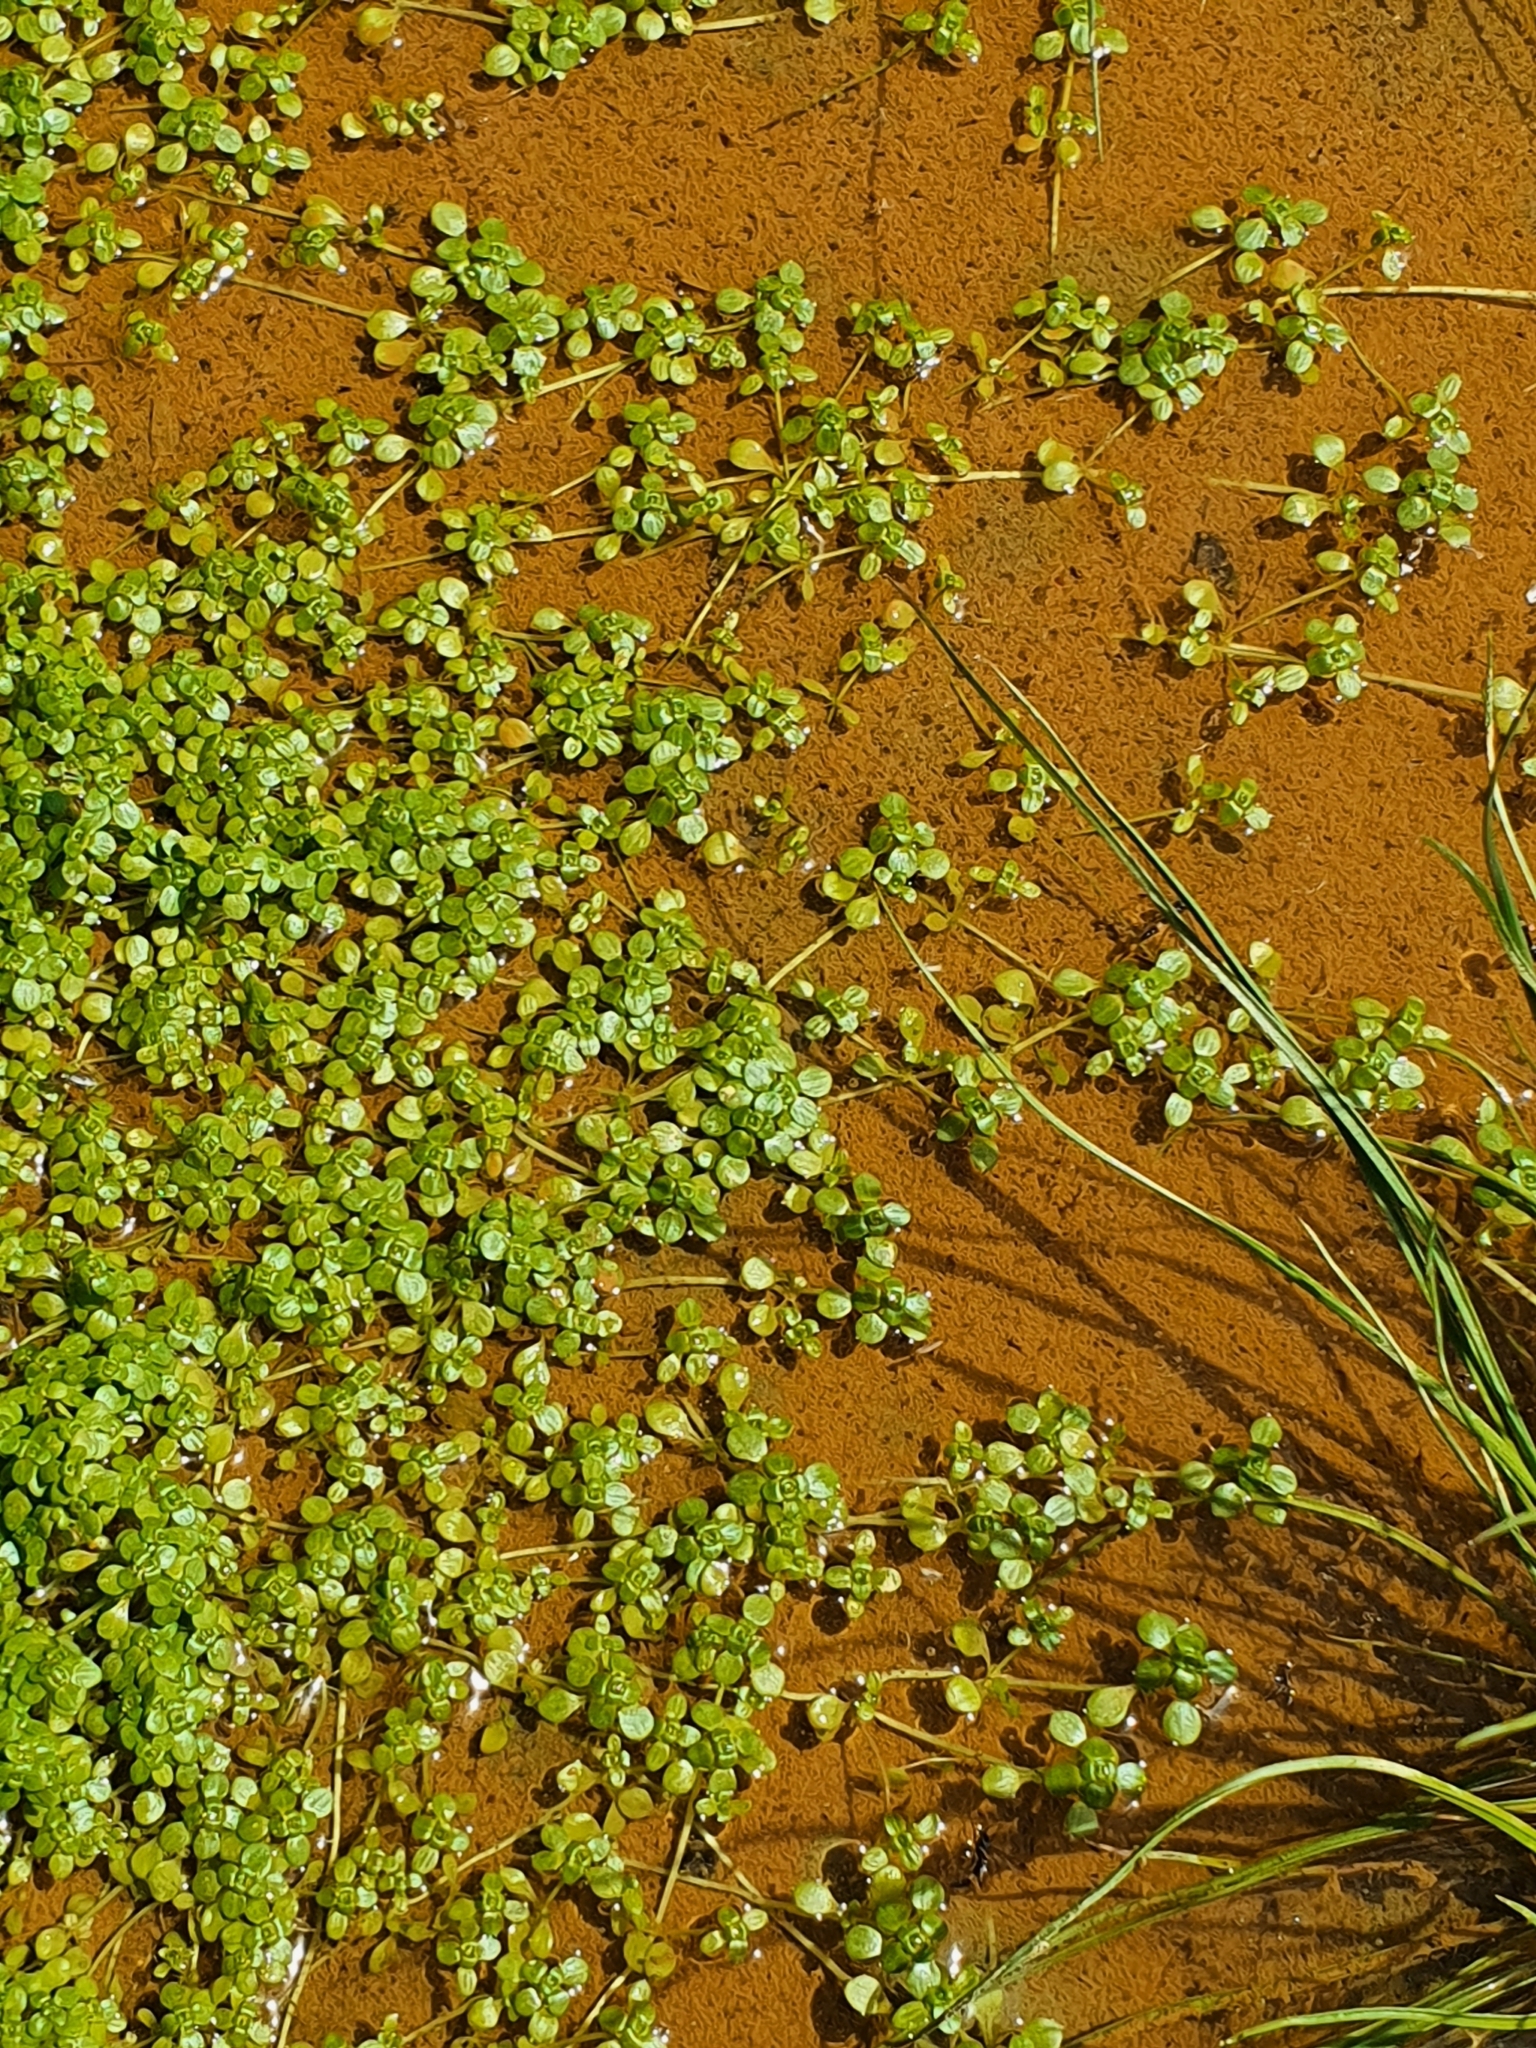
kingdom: Plantae
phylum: Tracheophyta
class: Magnoliopsida
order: Lamiales
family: Plantaginaceae
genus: Callitriche
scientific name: Callitriche stagnalis
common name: Common water-starwort
